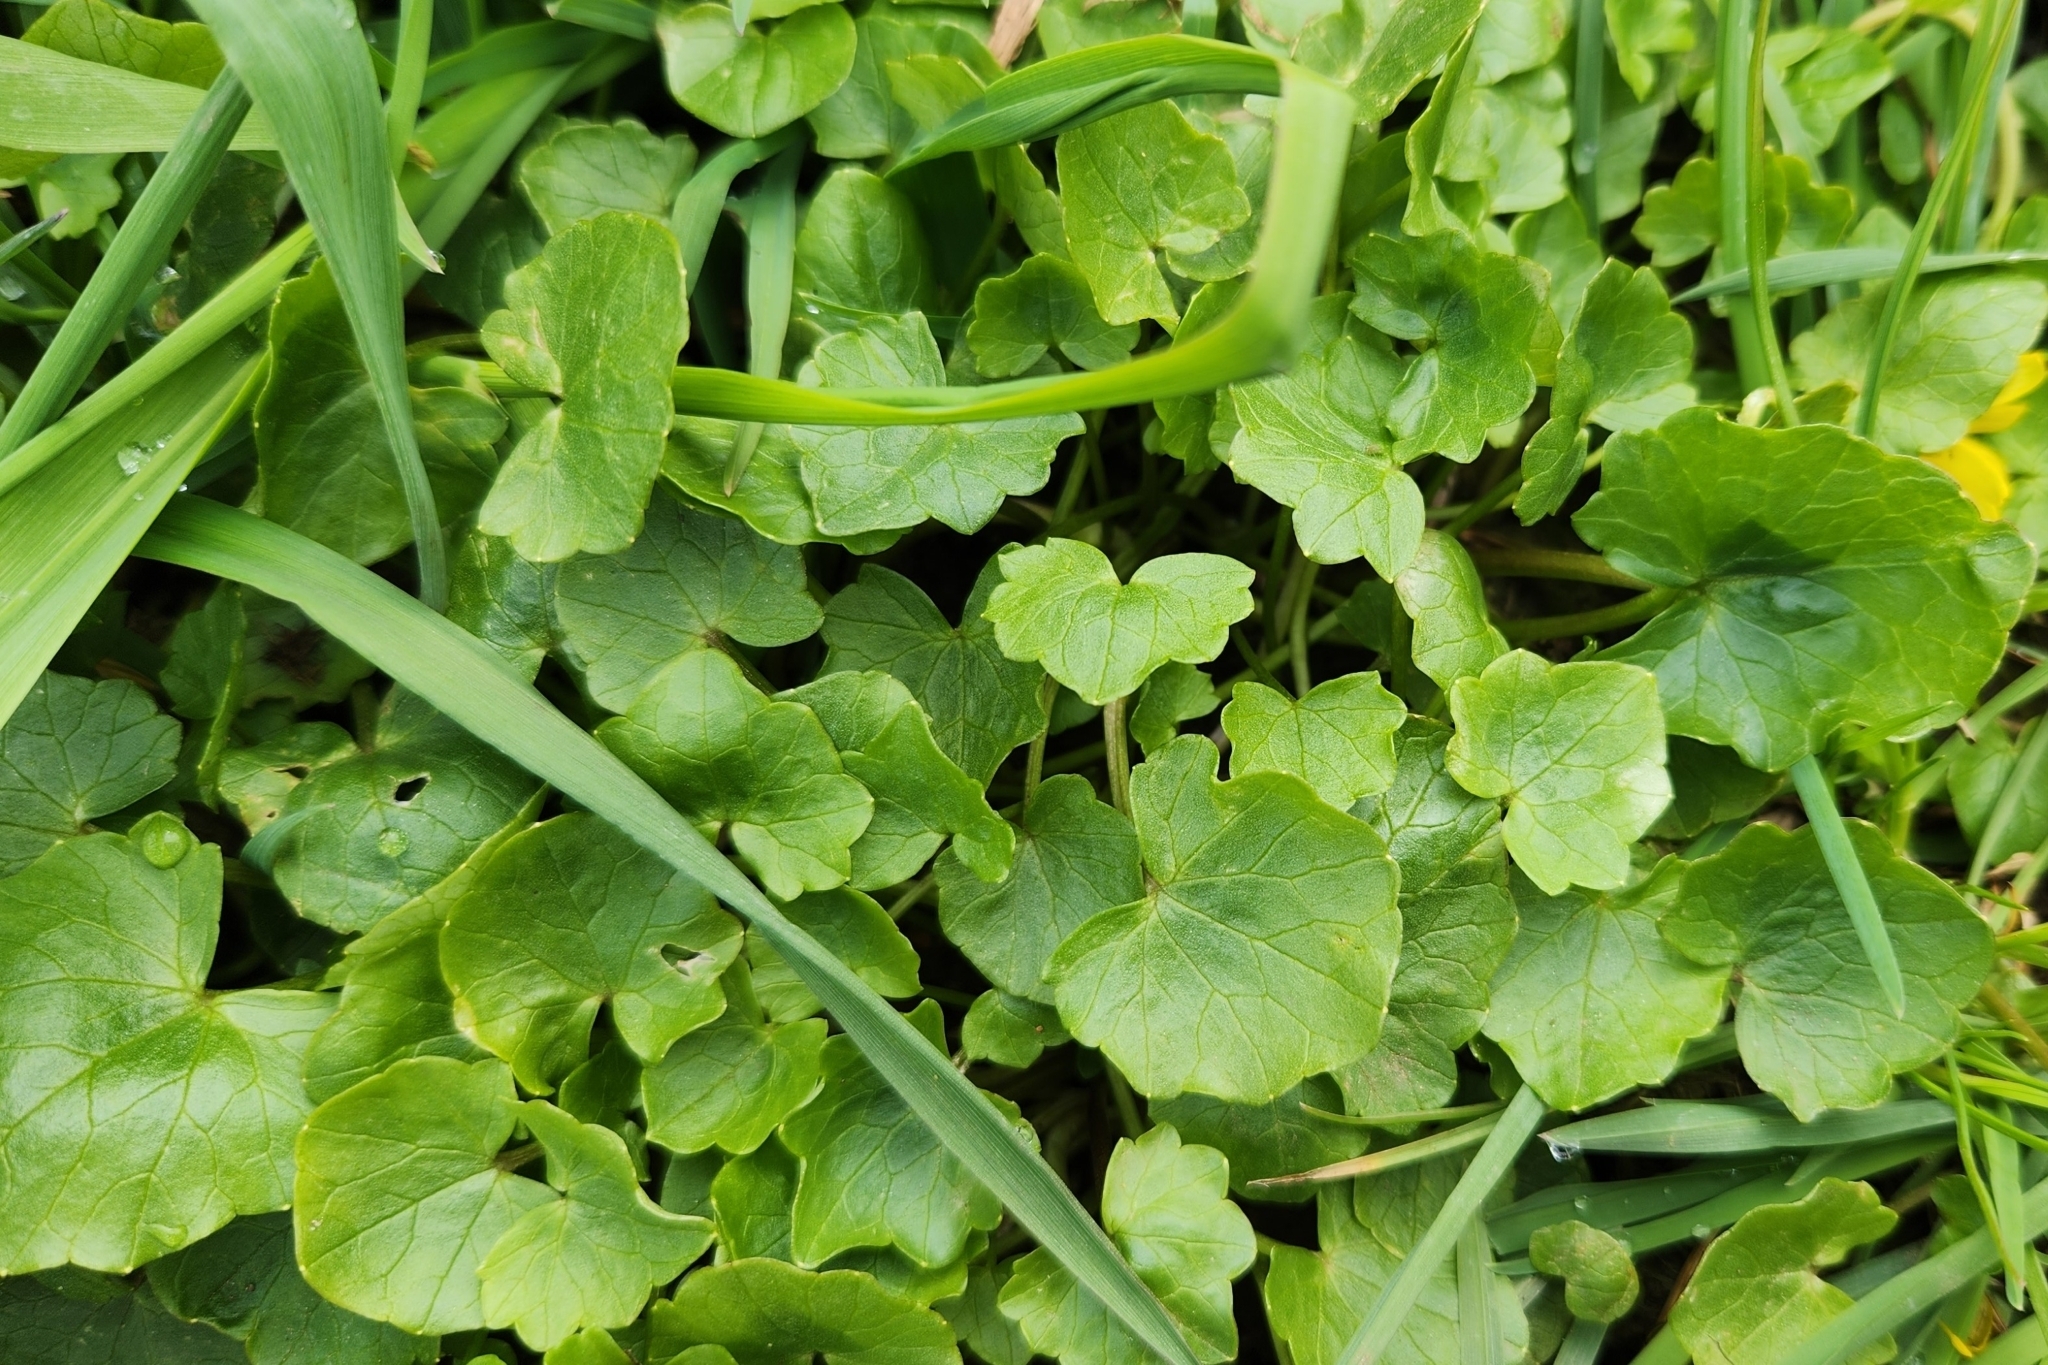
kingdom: Plantae
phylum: Tracheophyta
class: Magnoliopsida
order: Ranunculales
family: Ranunculaceae
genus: Ficaria
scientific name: Ficaria verna
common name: Lesser celandine
